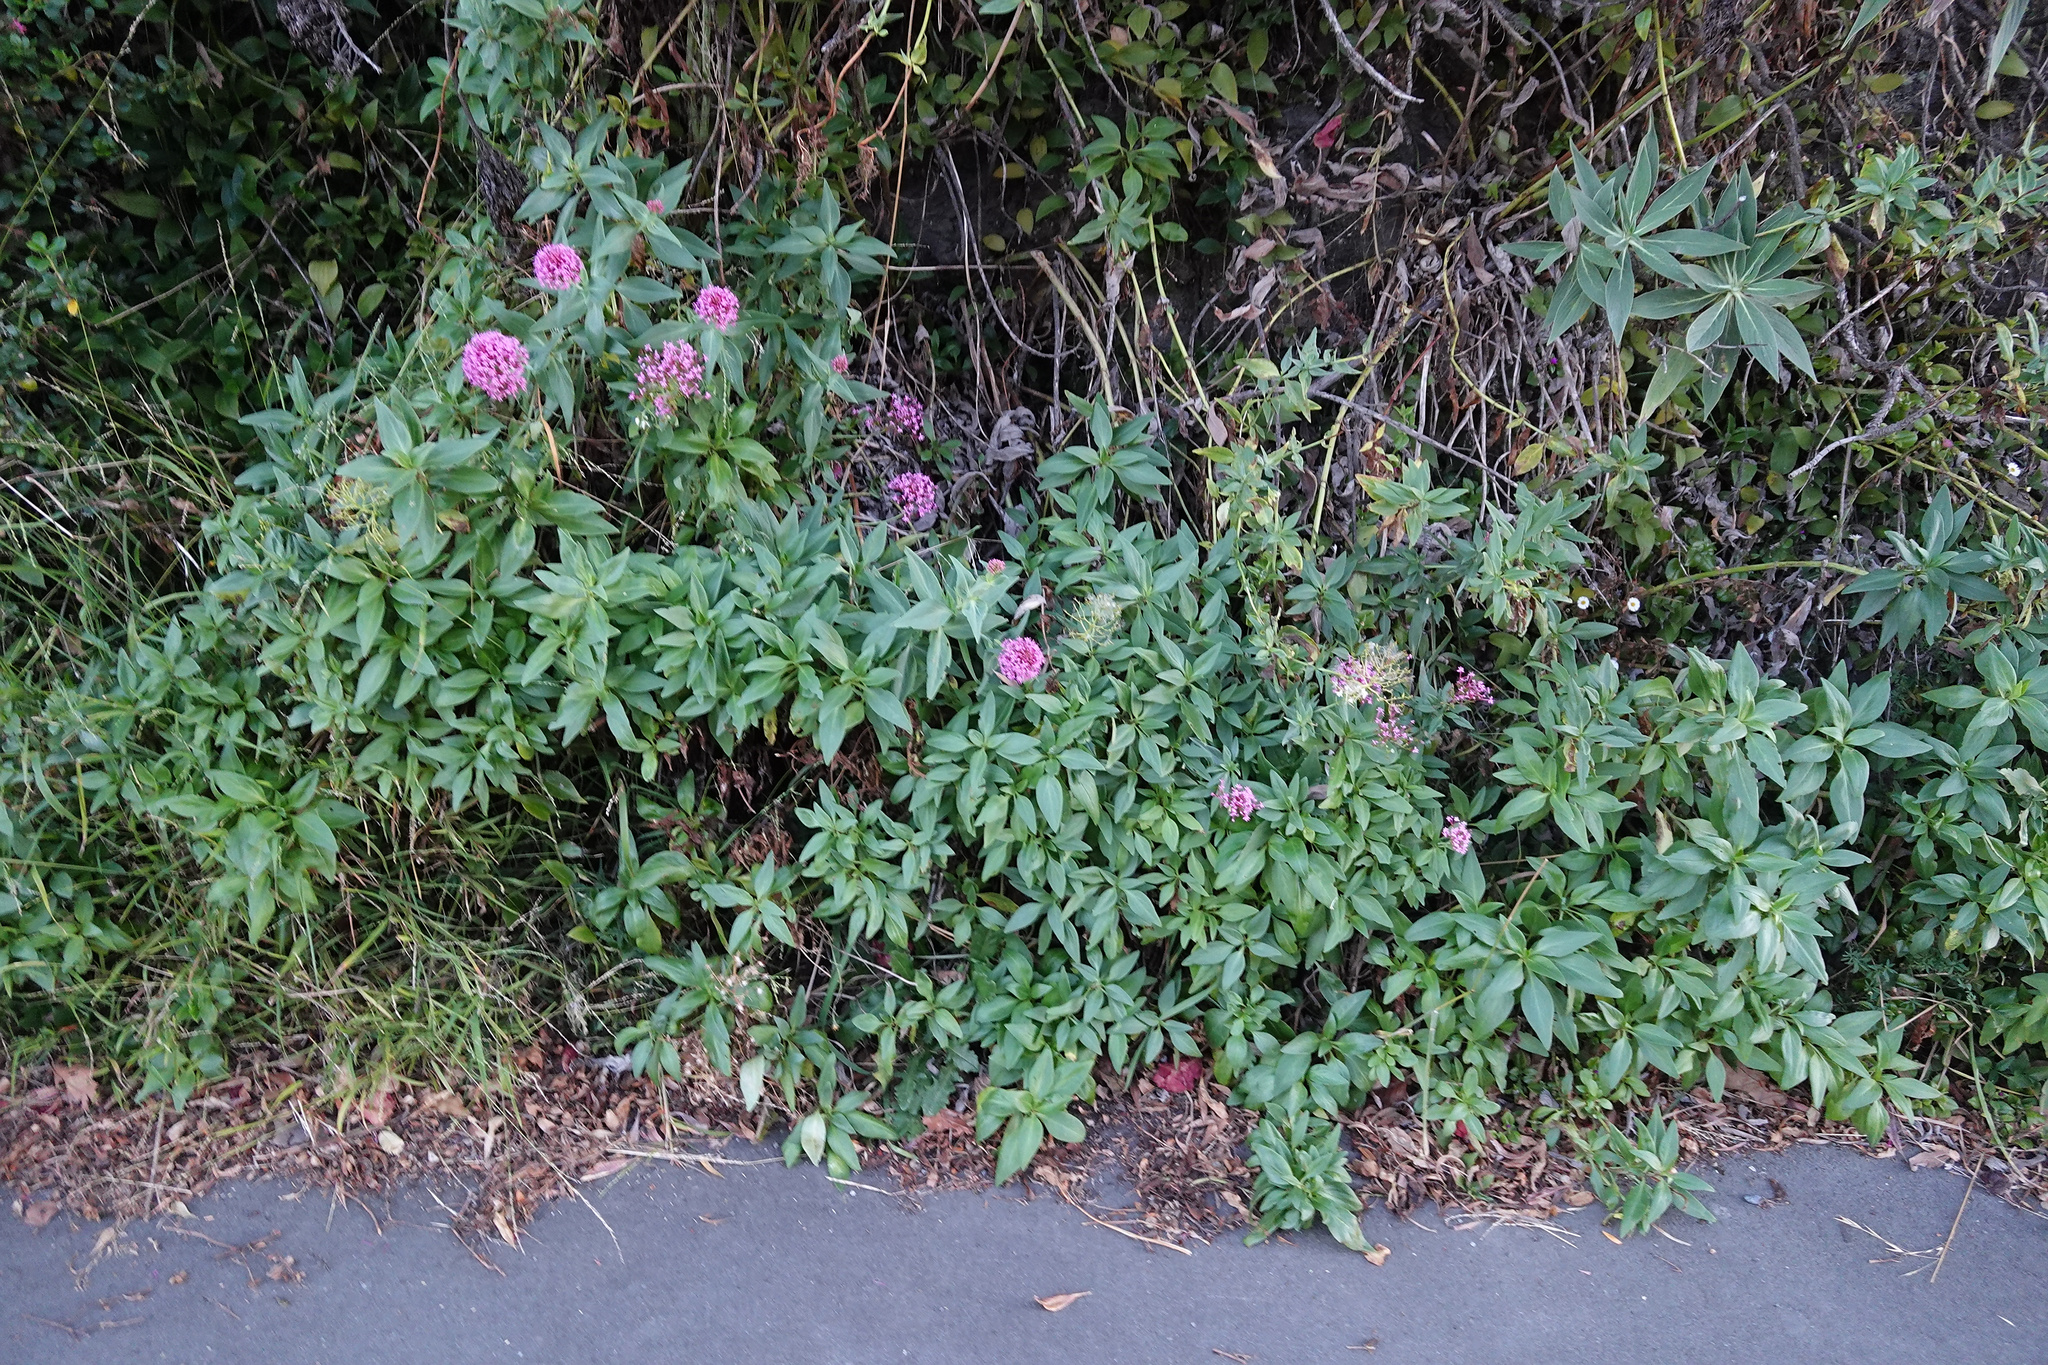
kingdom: Plantae
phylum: Tracheophyta
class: Magnoliopsida
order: Dipsacales
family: Caprifoliaceae
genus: Centranthus
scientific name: Centranthus ruber
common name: Red valerian
